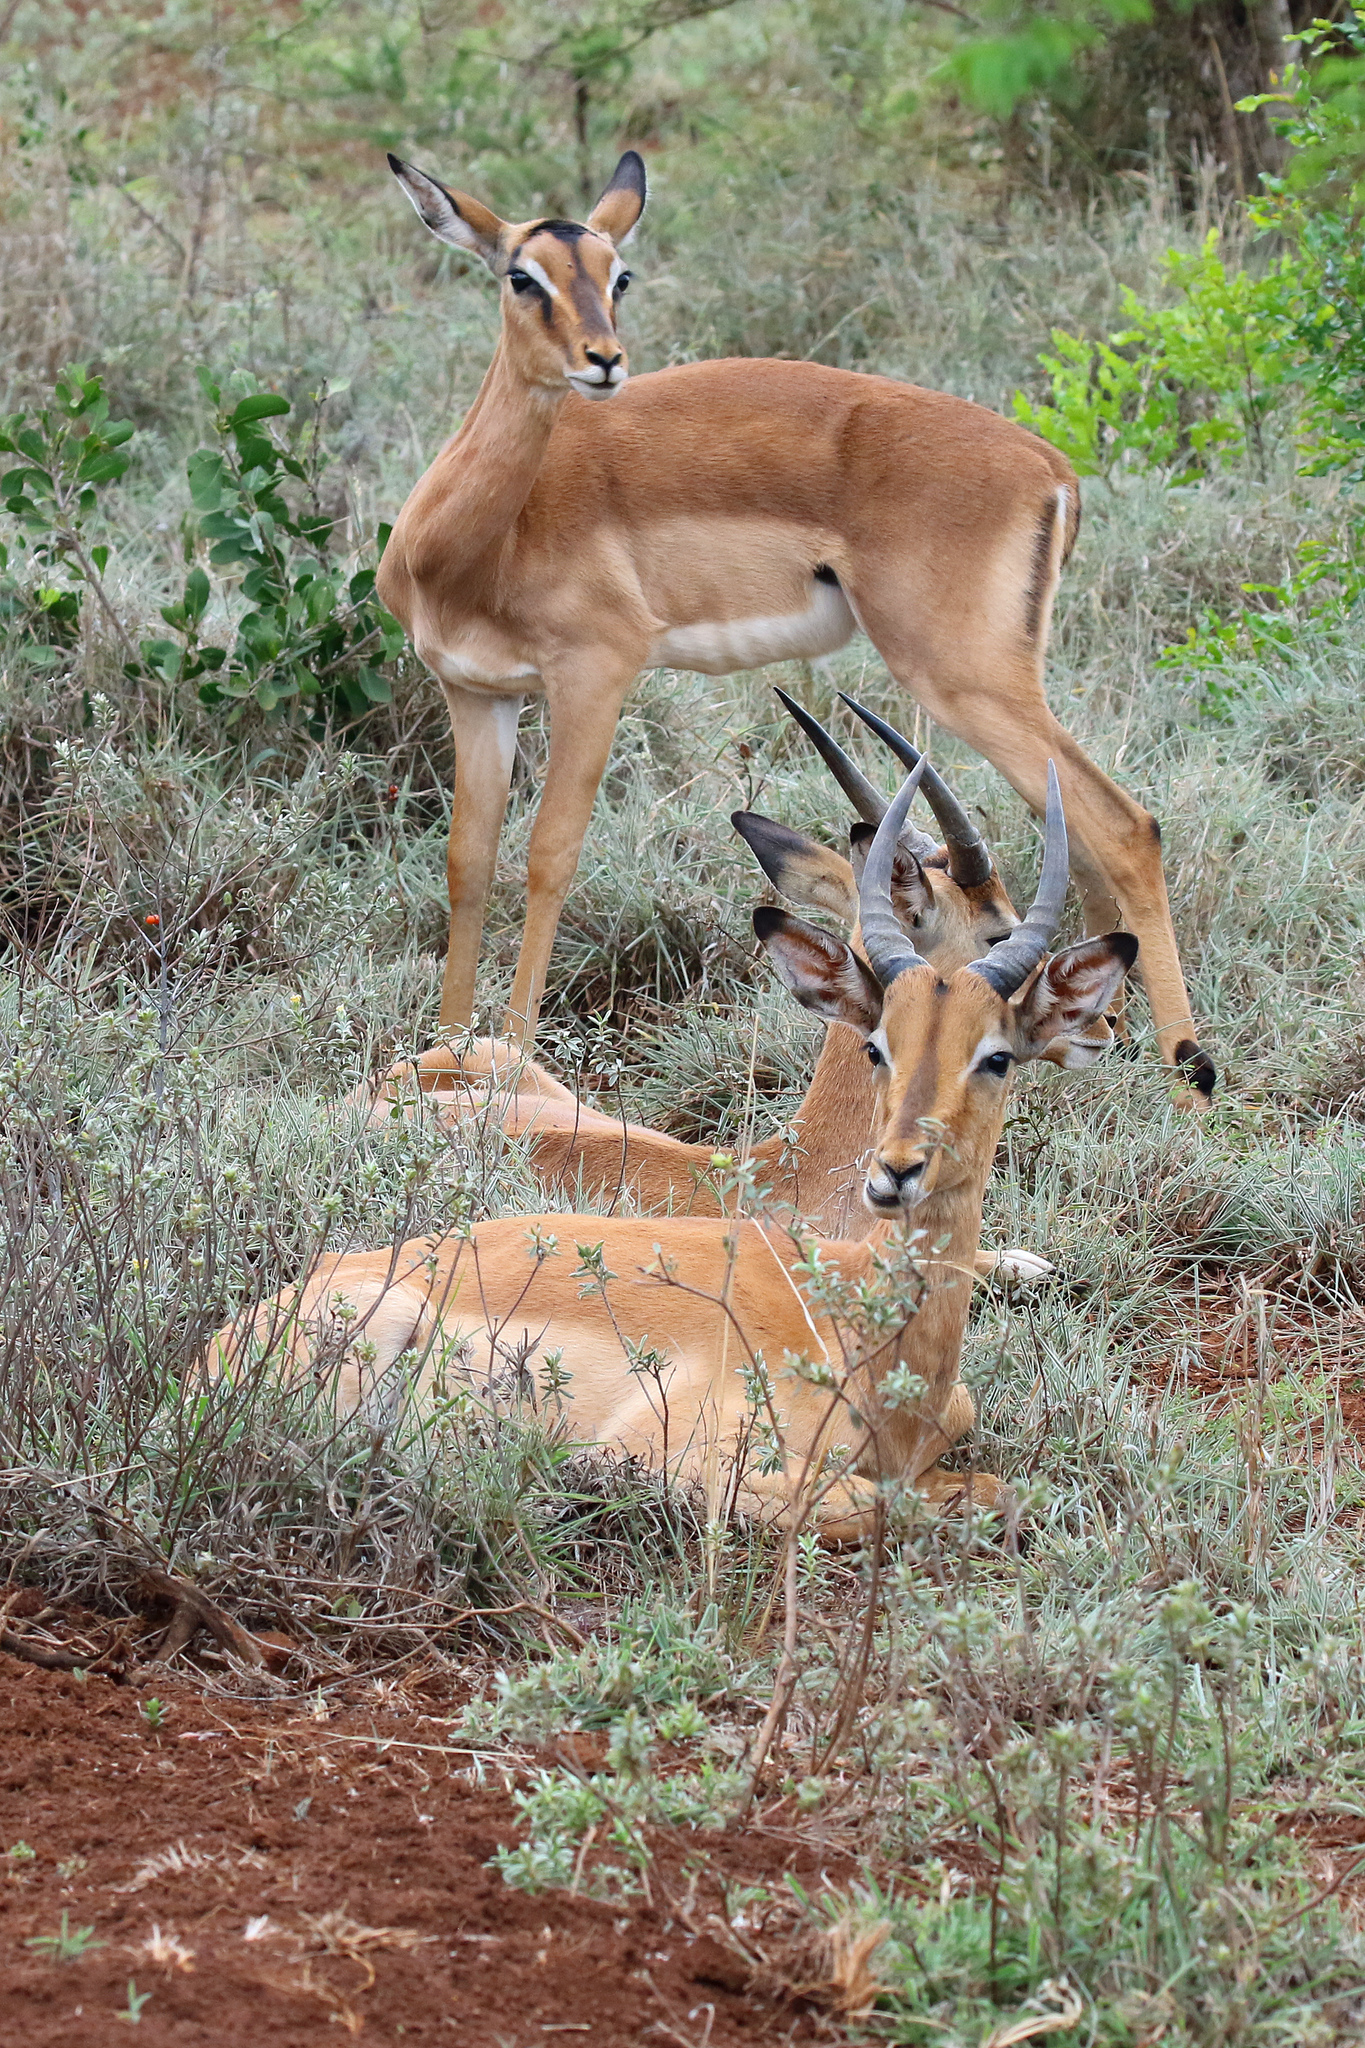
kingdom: Animalia
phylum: Chordata
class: Mammalia
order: Artiodactyla
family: Bovidae
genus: Aepyceros
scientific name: Aepyceros melampus
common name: Impala
